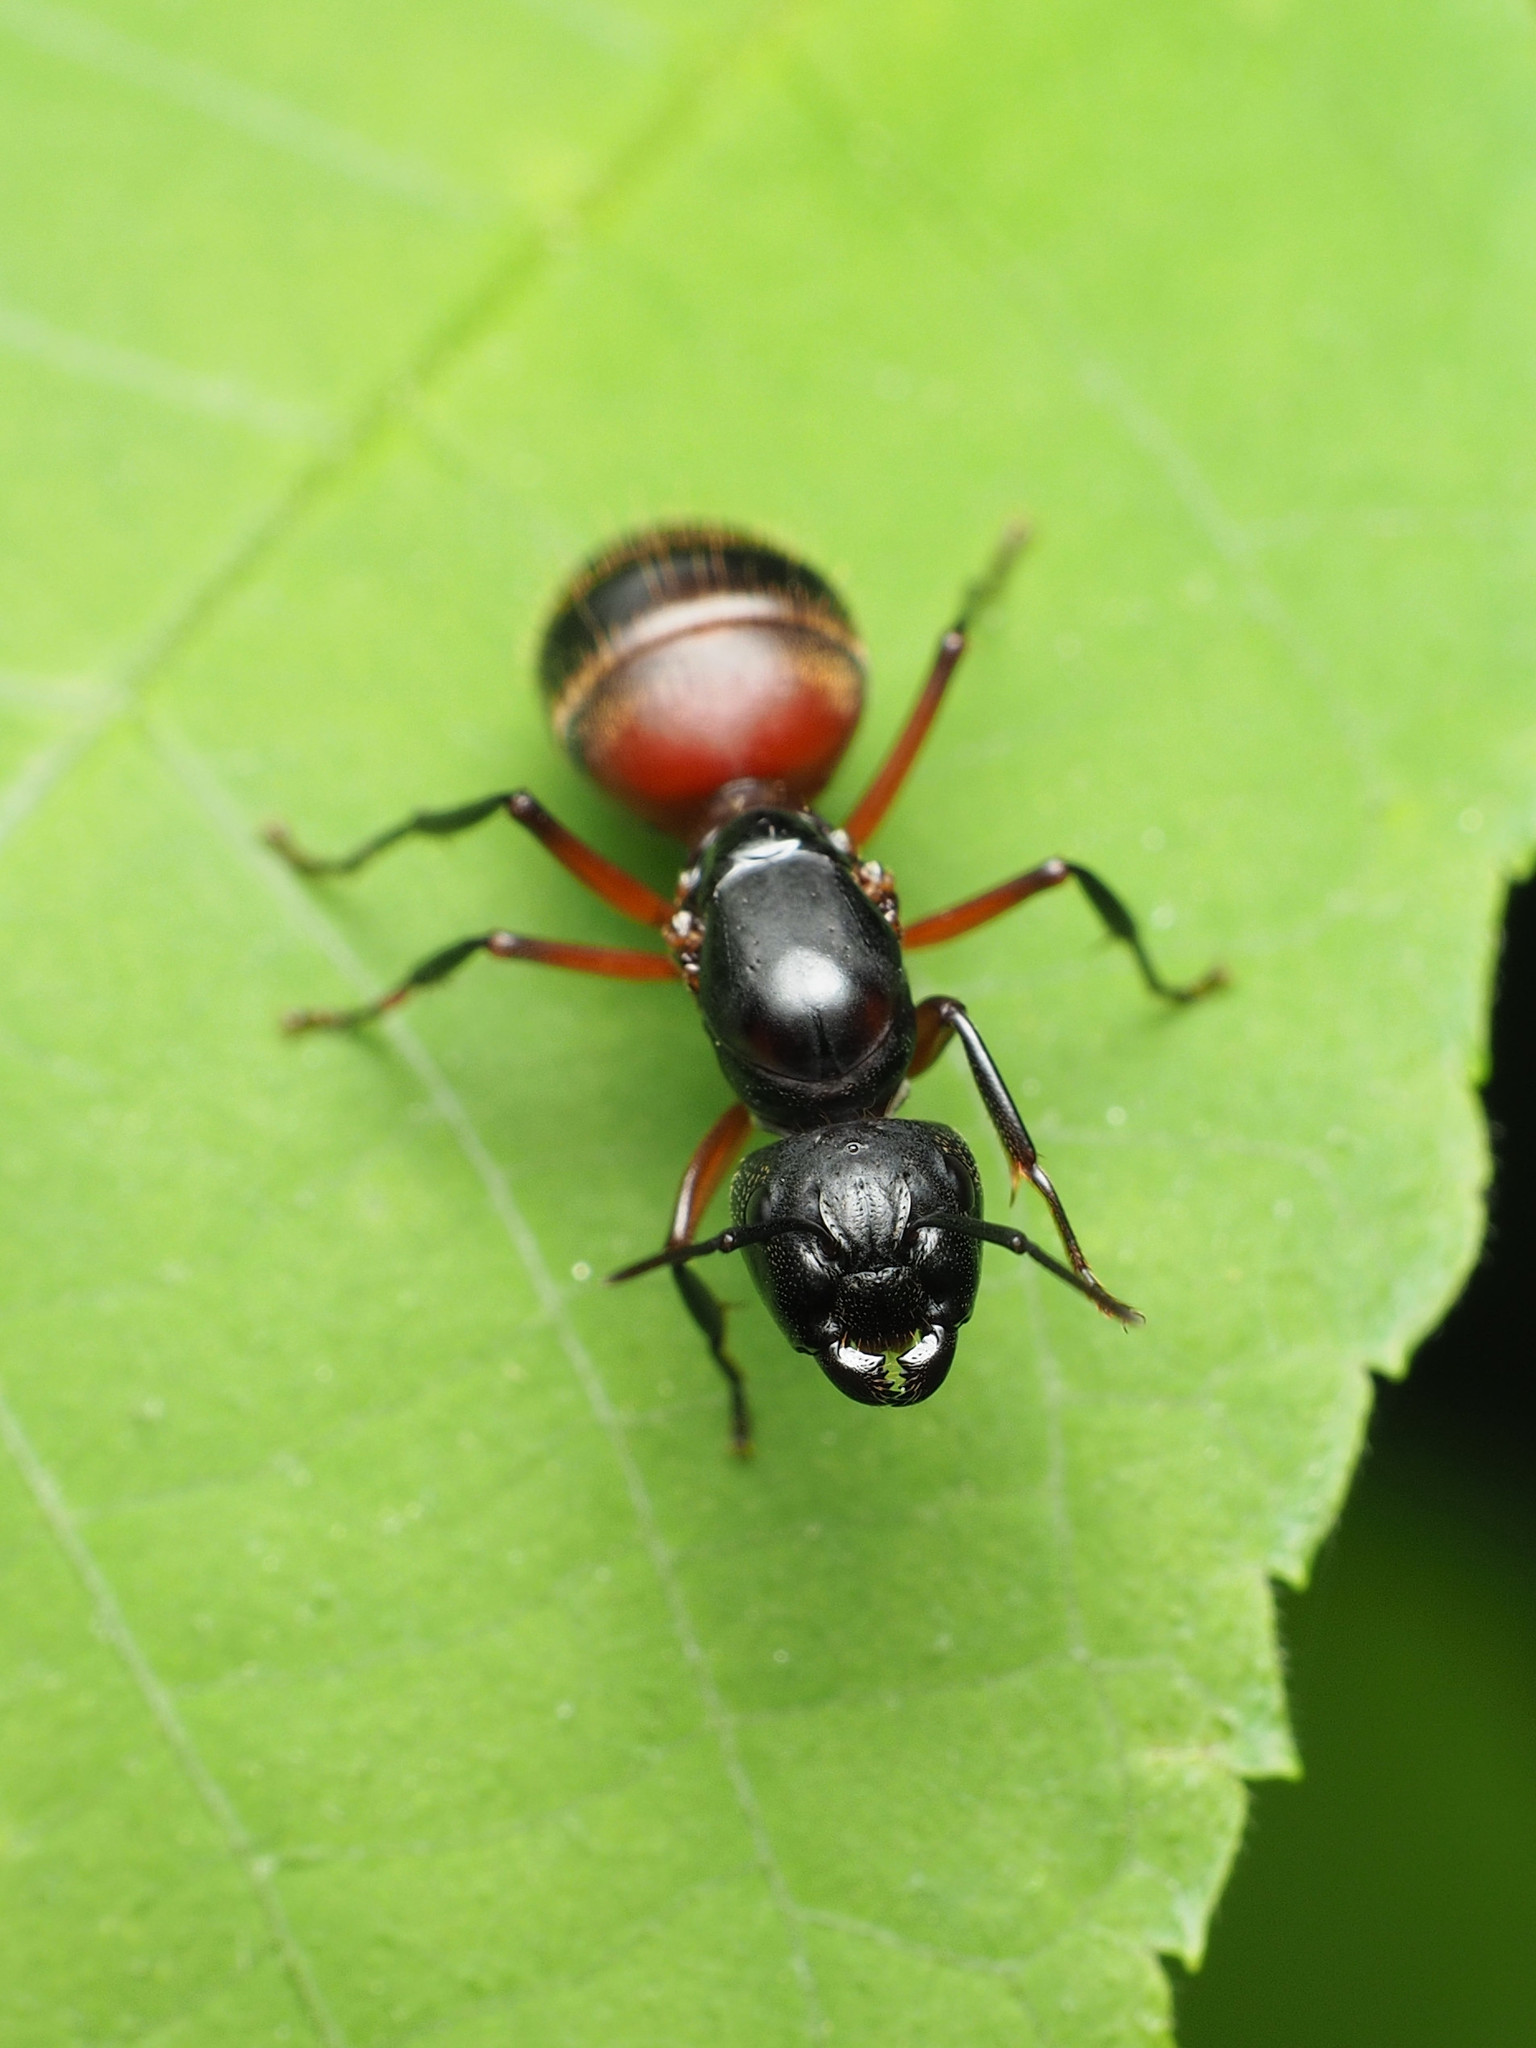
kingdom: Animalia
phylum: Arthropoda
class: Insecta
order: Hymenoptera
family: Formicidae
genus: Camponotus
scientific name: Camponotus chromaiodes
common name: Red carpenter ant
